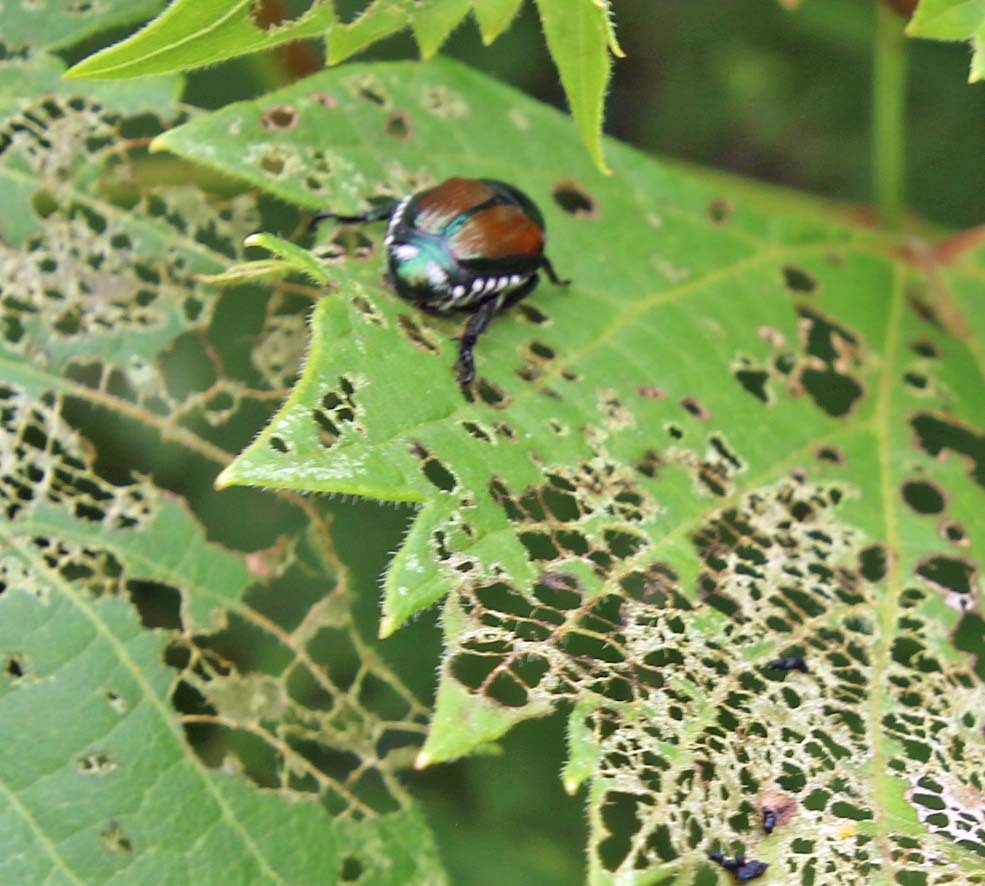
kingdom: Animalia
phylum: Arthropoda
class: Insecta
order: Coleoptera
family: Scarabaeidae
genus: Popillia
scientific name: Popillia japonica
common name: Japanese beetle
